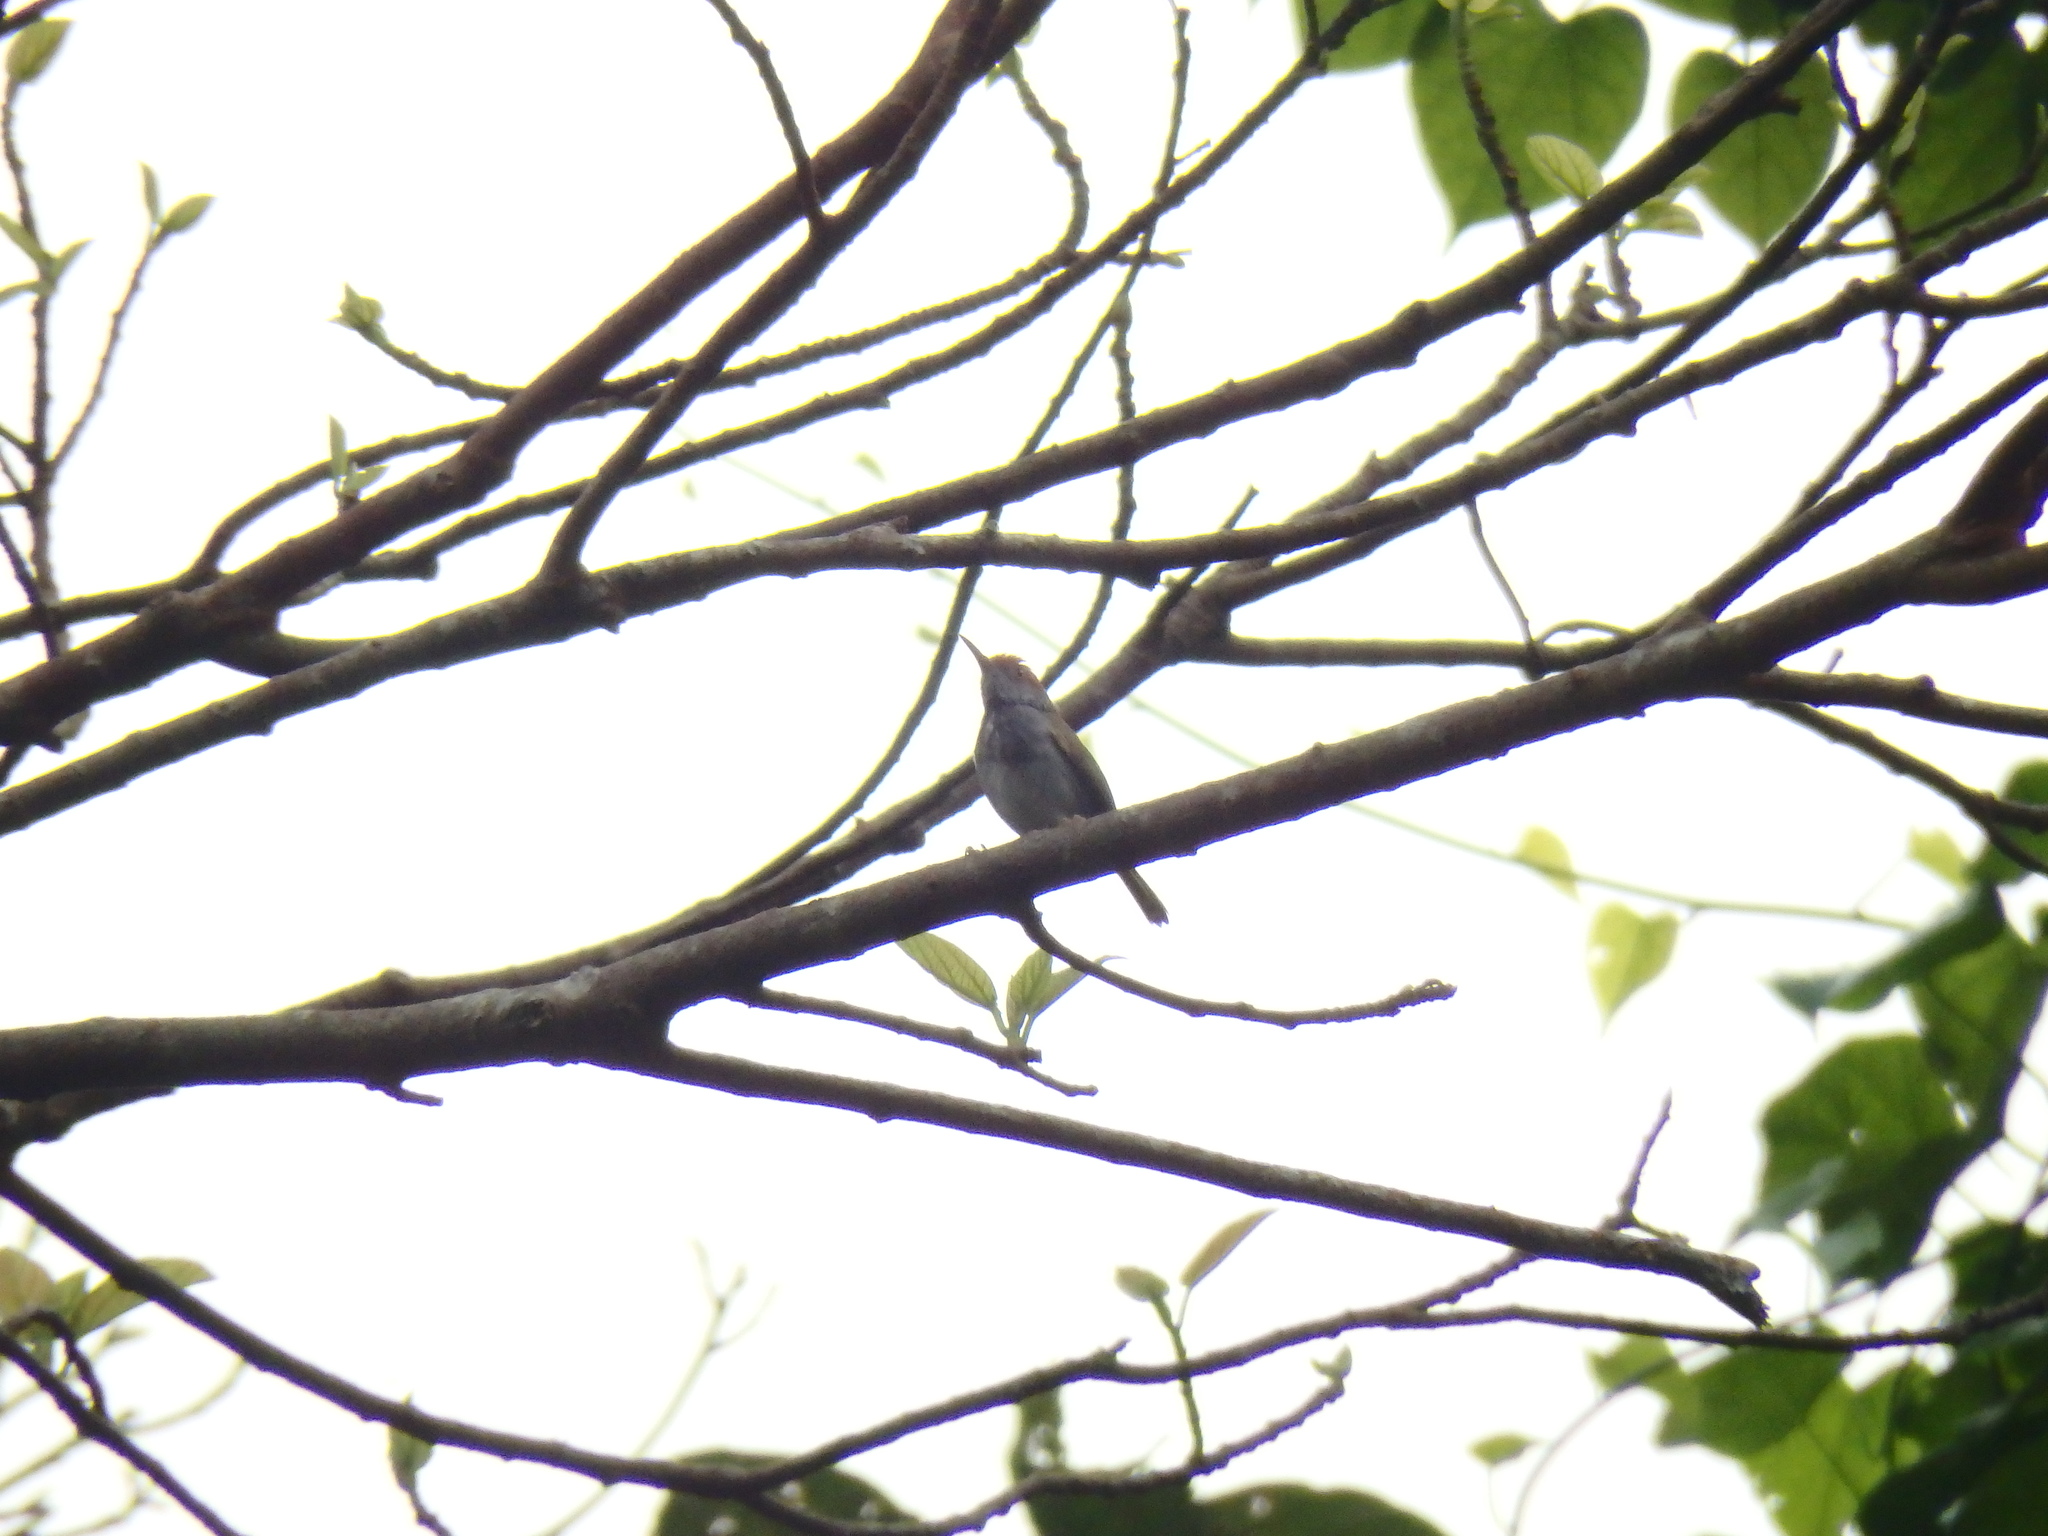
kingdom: Animalia
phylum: Chordata
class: Aves
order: Passeriformes
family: Cisticolidae
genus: Orthotomus
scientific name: Orthotomus atrogularis
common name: Dark-necked tailorbird
